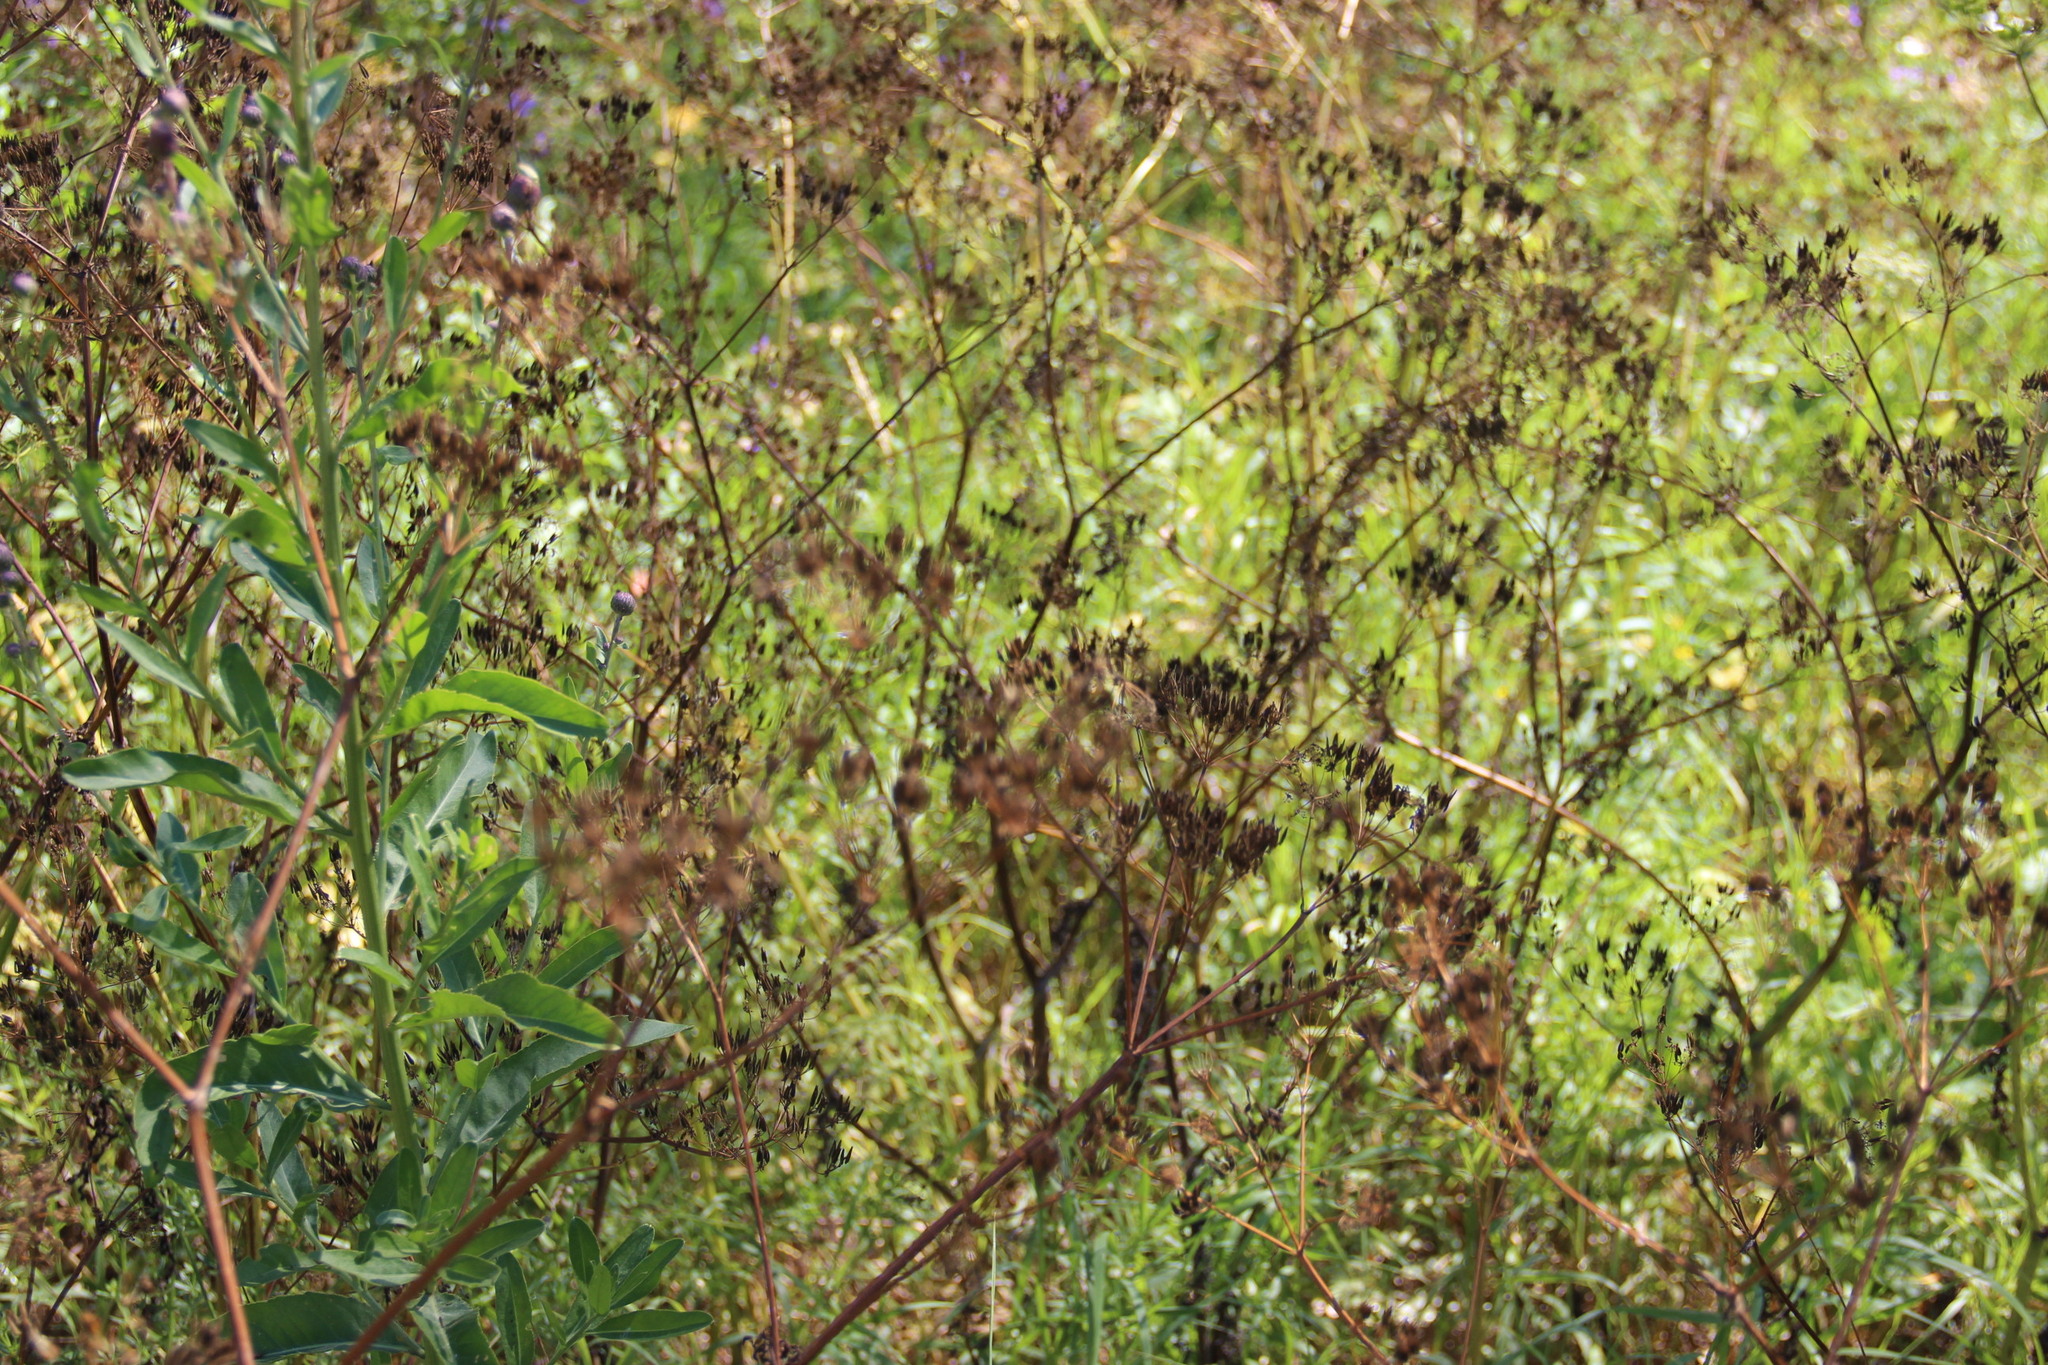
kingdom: Plantae
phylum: Tracheophyta
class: Magnoliopsida
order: Apiales
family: Apiaceae
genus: Pastinaca
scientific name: Pastinaca sativa
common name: Wild parsnip
